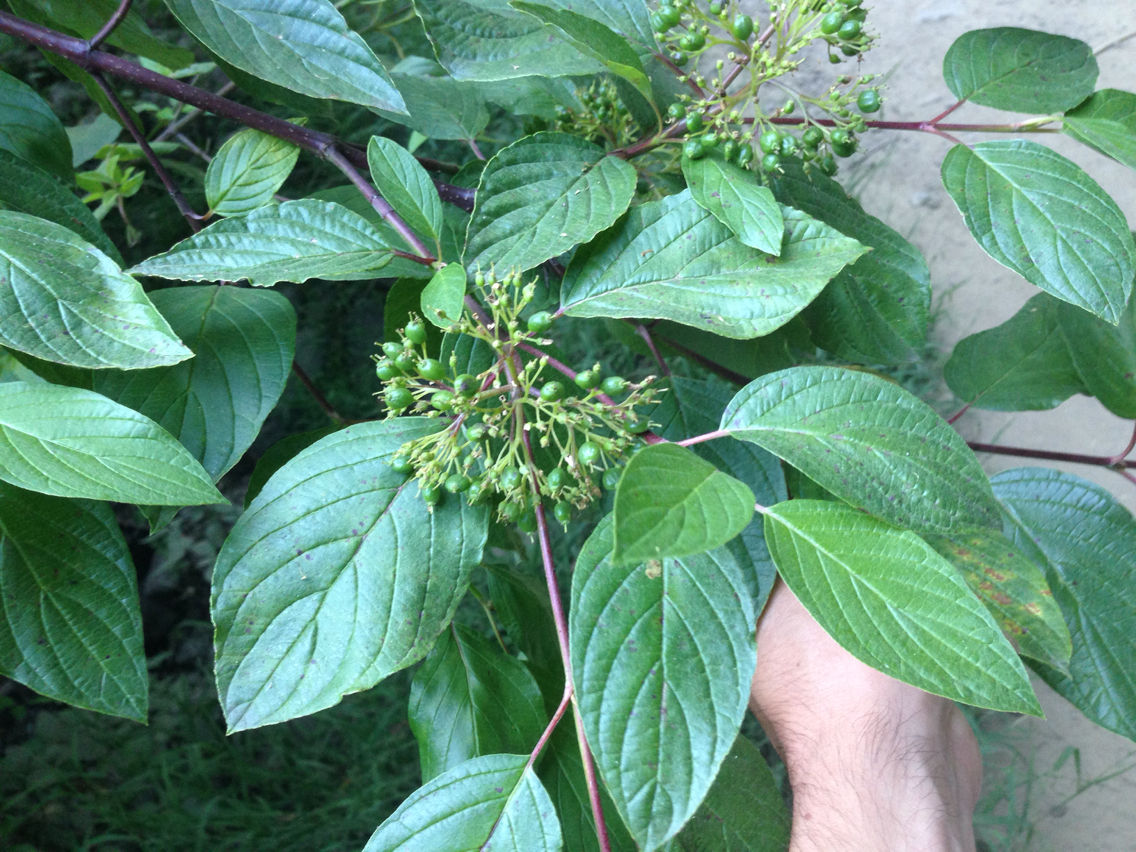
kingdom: Plantae
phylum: Tracheophyta
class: Magnoliopsida
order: Cornales
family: Cornaceae
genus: Cornus
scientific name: Cornus sericea
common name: Red-osier dogwood
